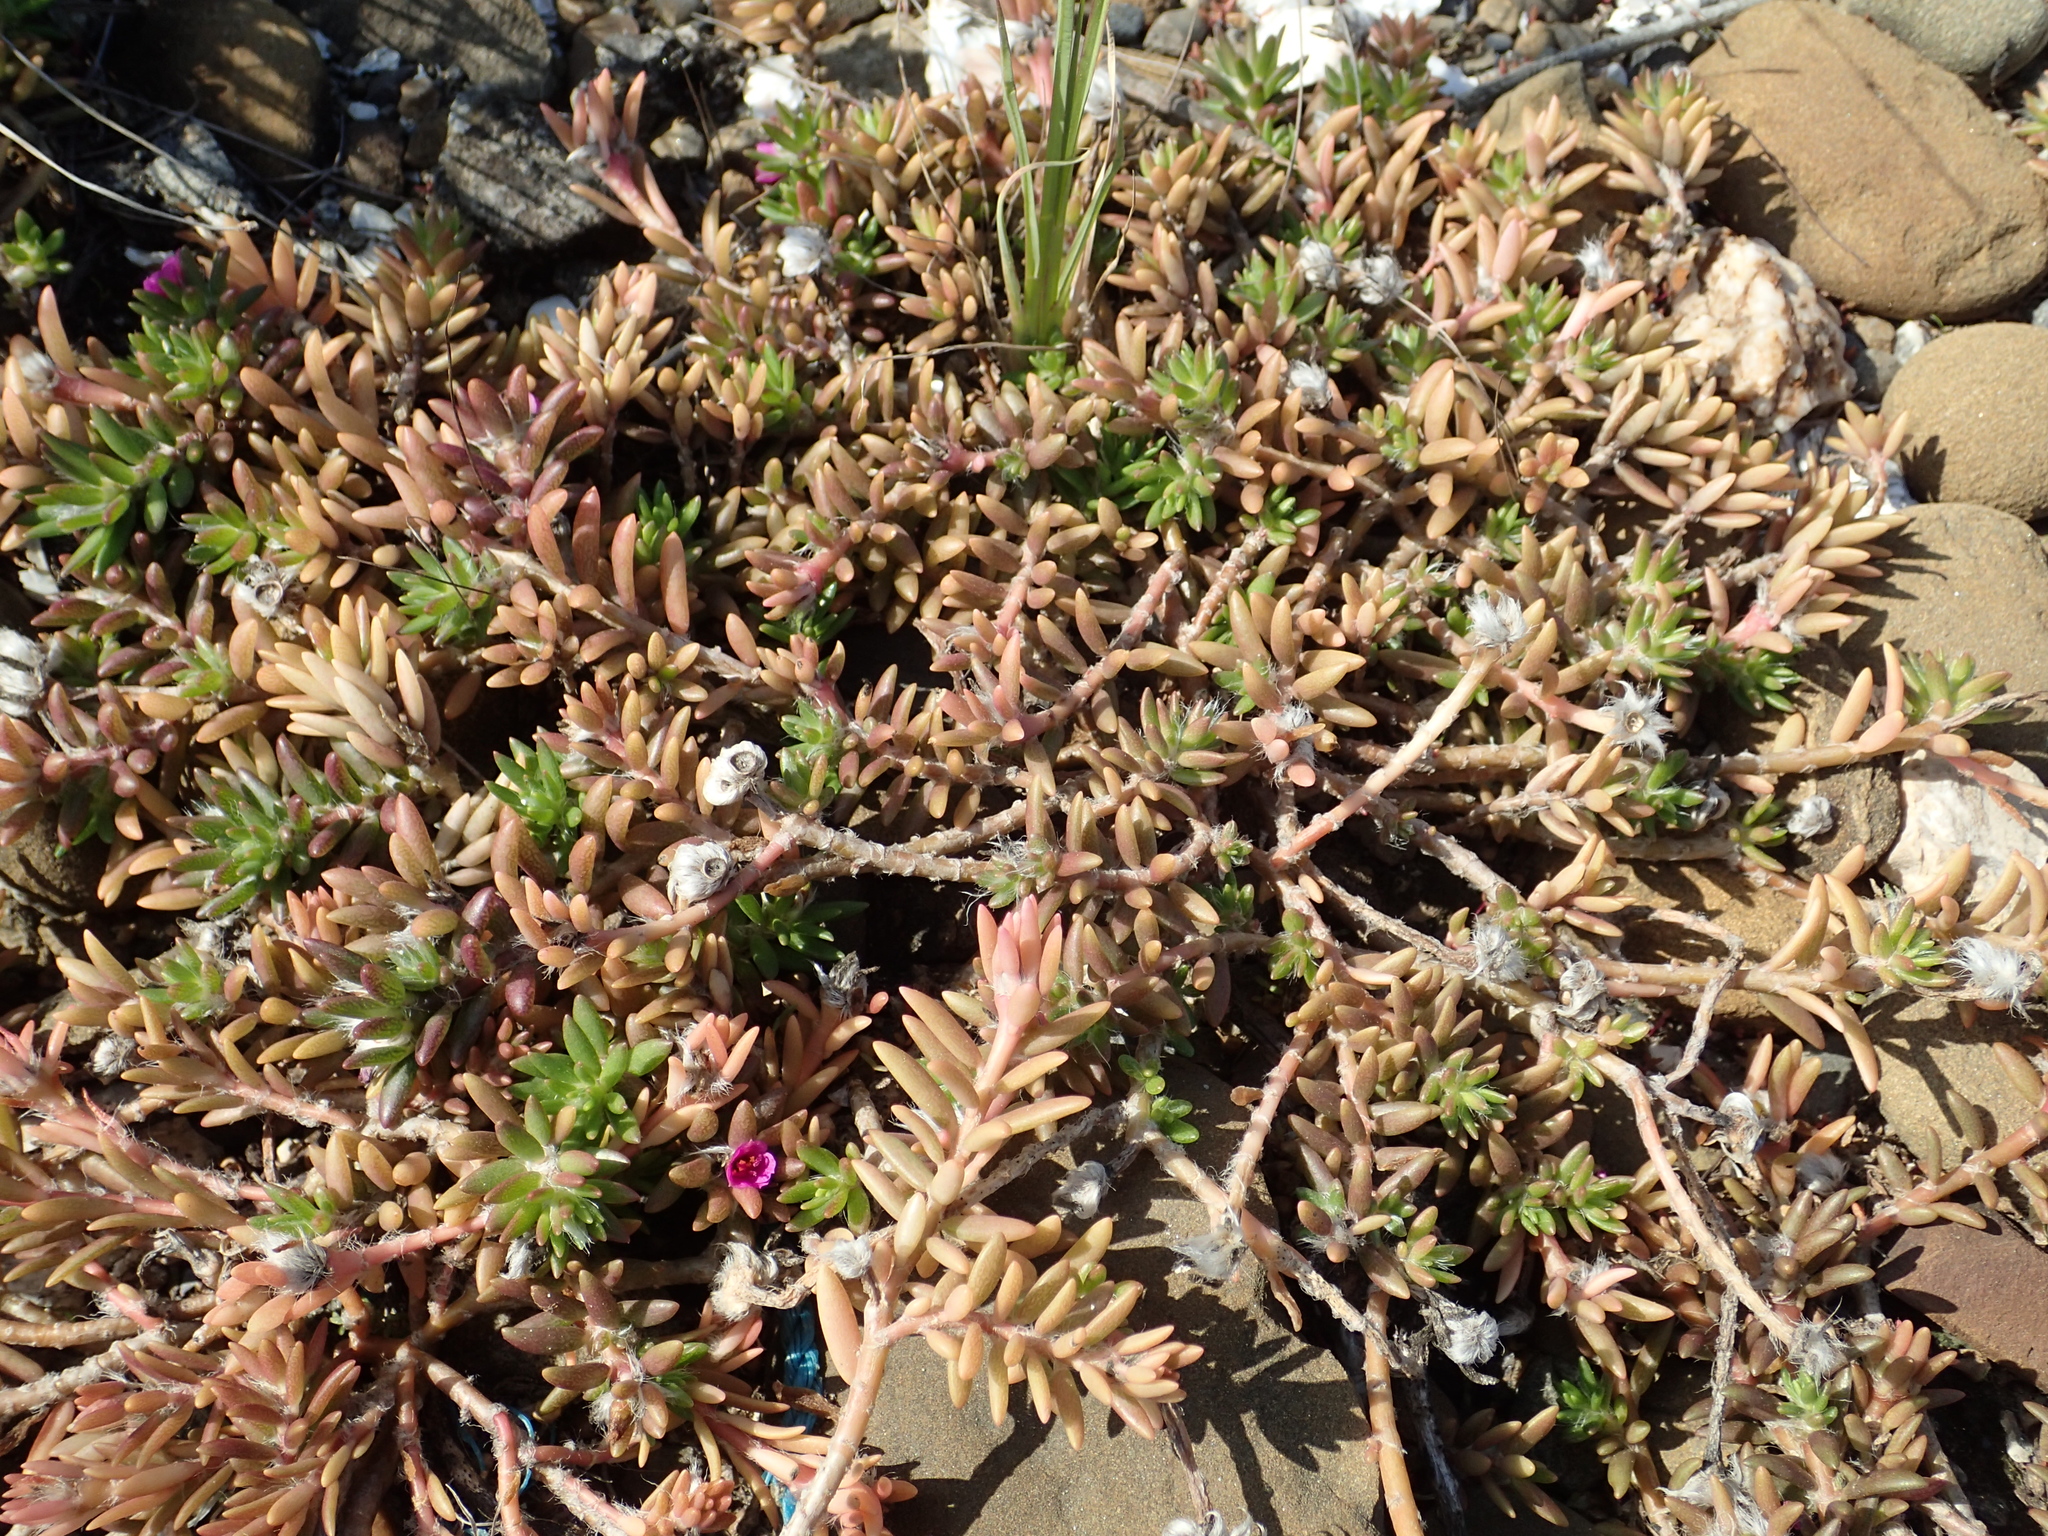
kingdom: Plantae
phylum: Tracheophyta
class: Magnoliopsida
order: Caryophyllales
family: Portulacaceae
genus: Portulaca
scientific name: Portulaca pilosa
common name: Kiss me quick
